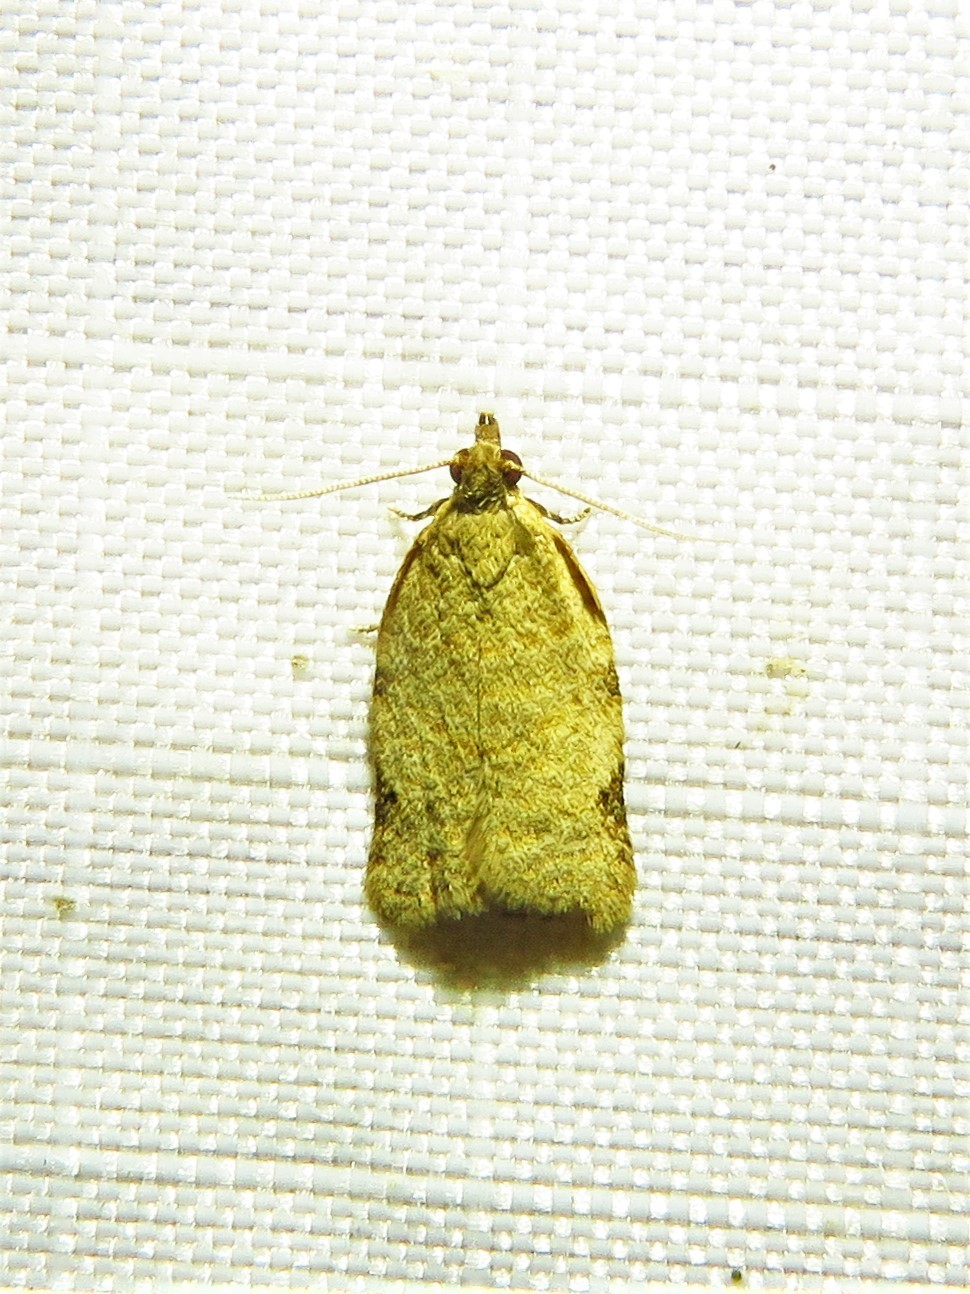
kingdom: Animalia
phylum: Arthropoda
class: Insecta
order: Lepidoptera
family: Tortricidae
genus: Clepsis
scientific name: Clepsis virescana
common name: Greenish apple moth
